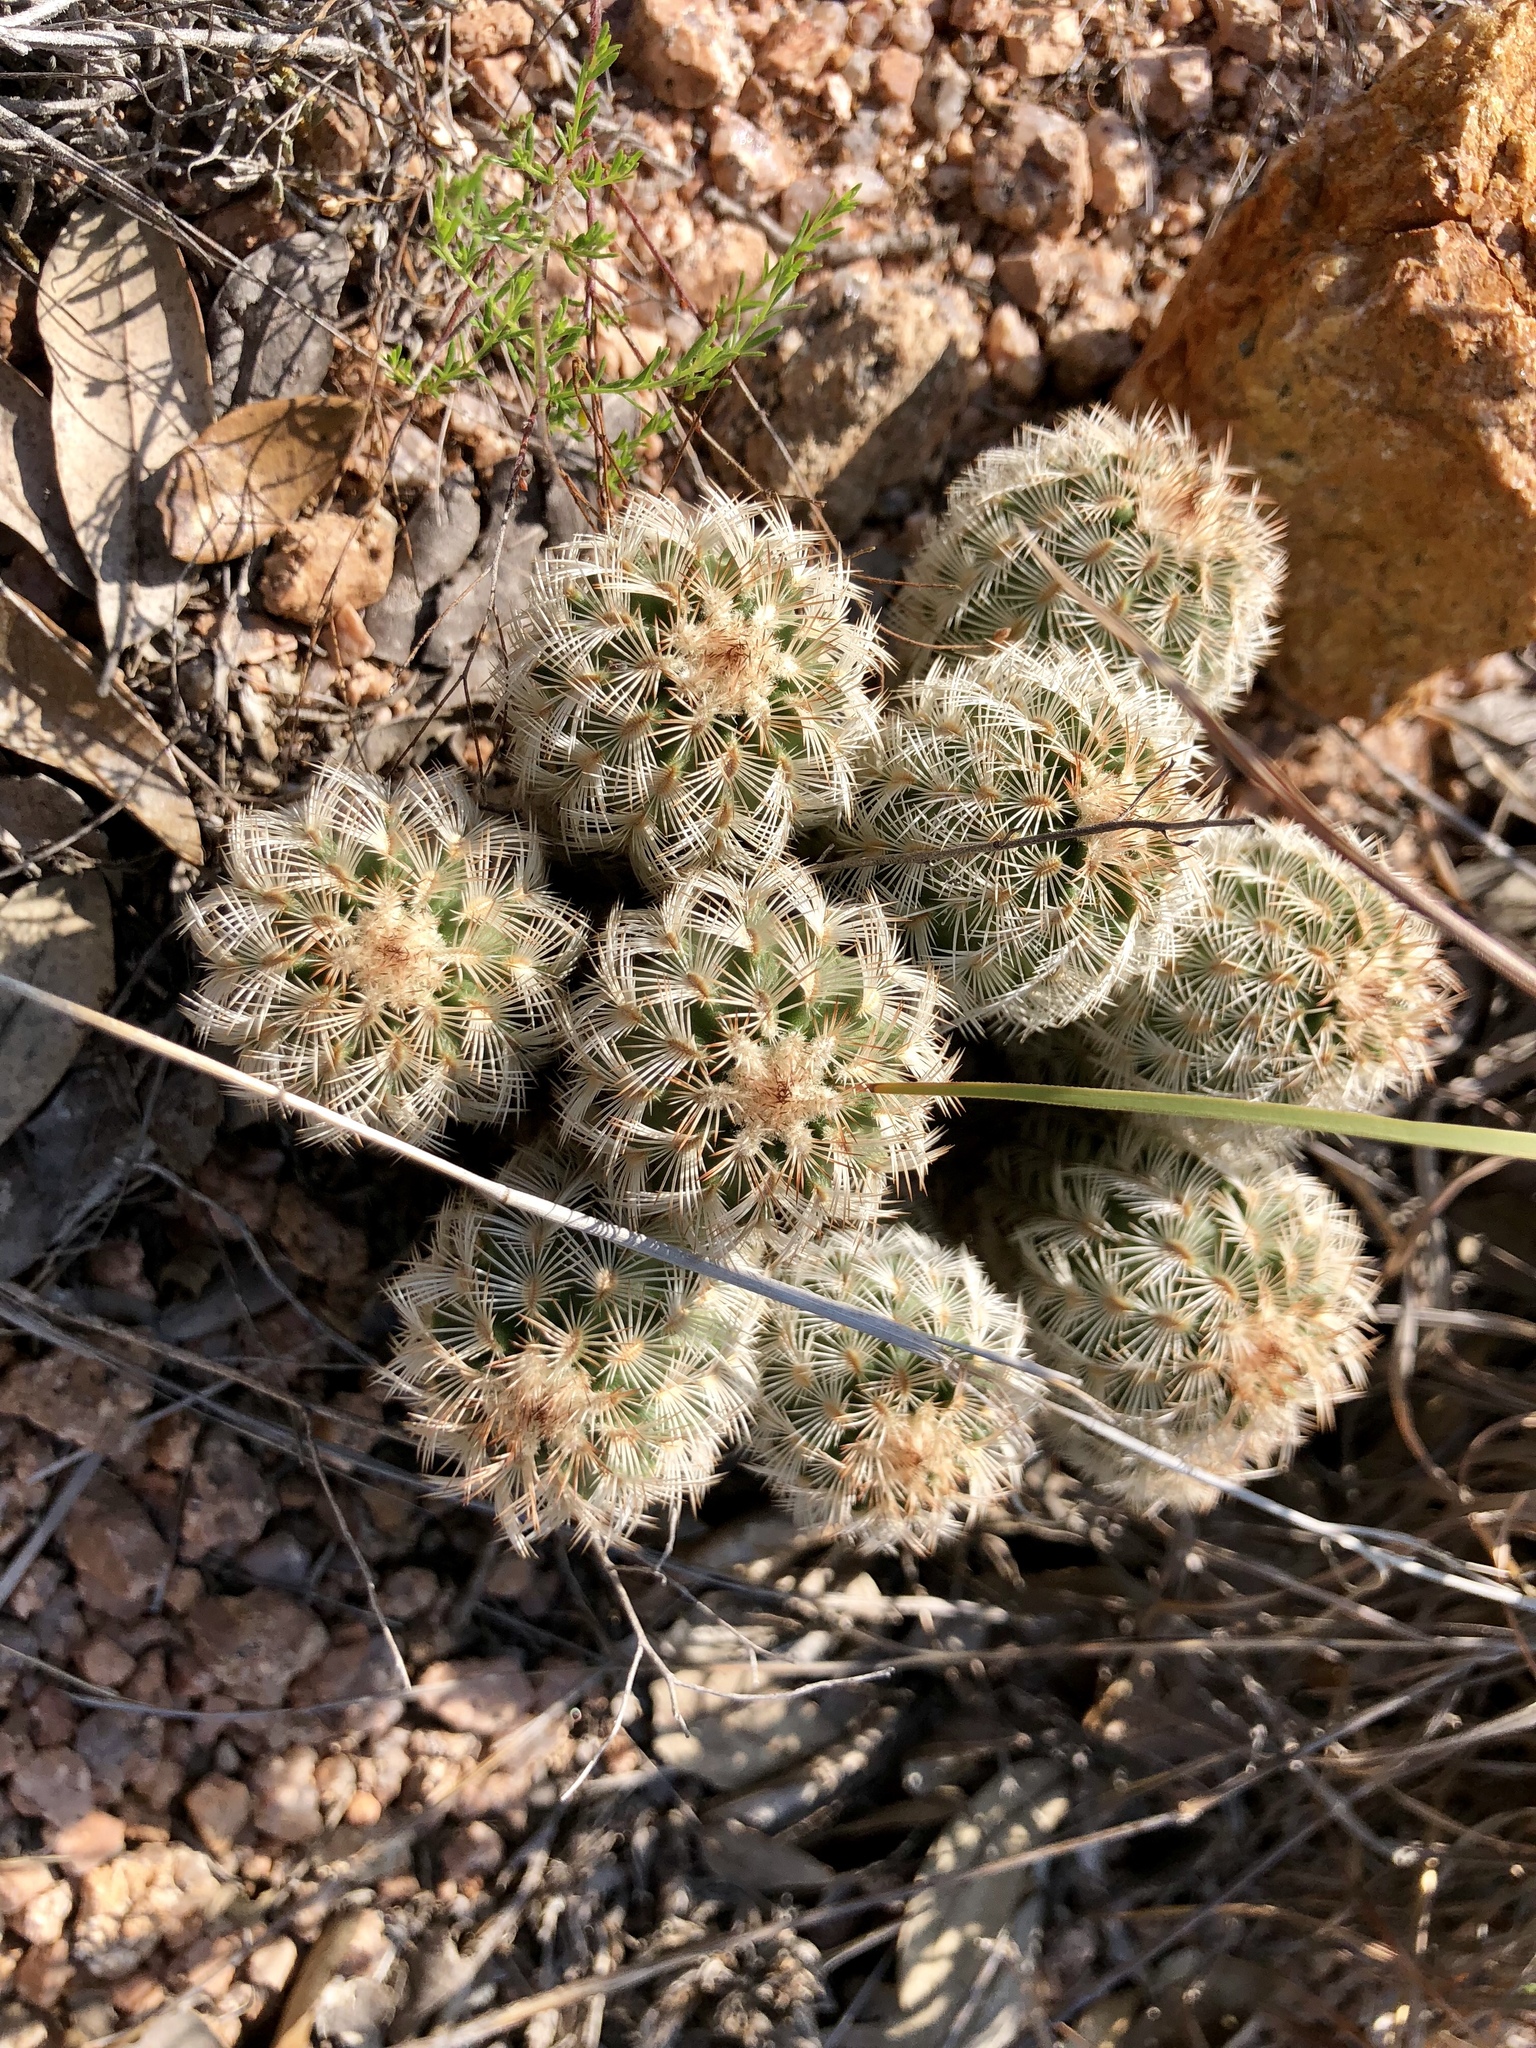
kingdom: Plantae
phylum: Tracheophyta
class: Magnoliopsida
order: Caryophyllales
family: Cactaceae
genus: Echinocereus
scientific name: Echinocereus reichenbachii
